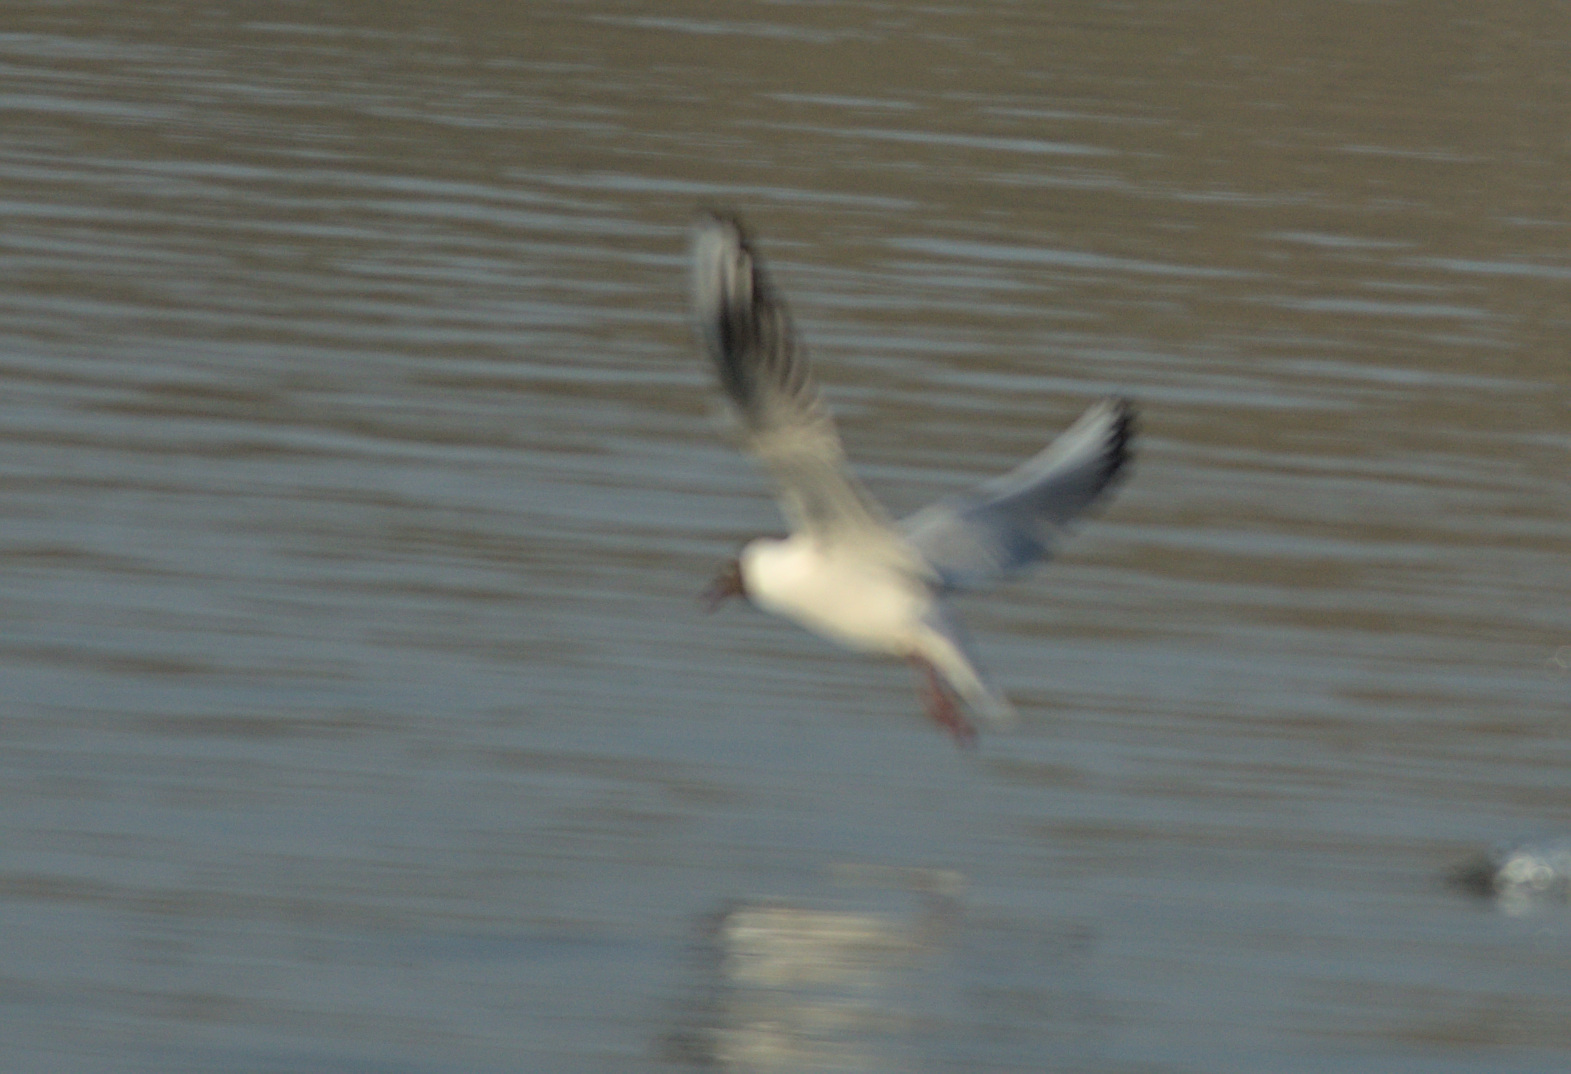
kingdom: Animalia
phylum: Chordata
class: Aves
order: Charadriiformes
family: Laridae
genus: Chroicocephalus
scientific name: Chroicocephalus ridibundus
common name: Black-headed gull
